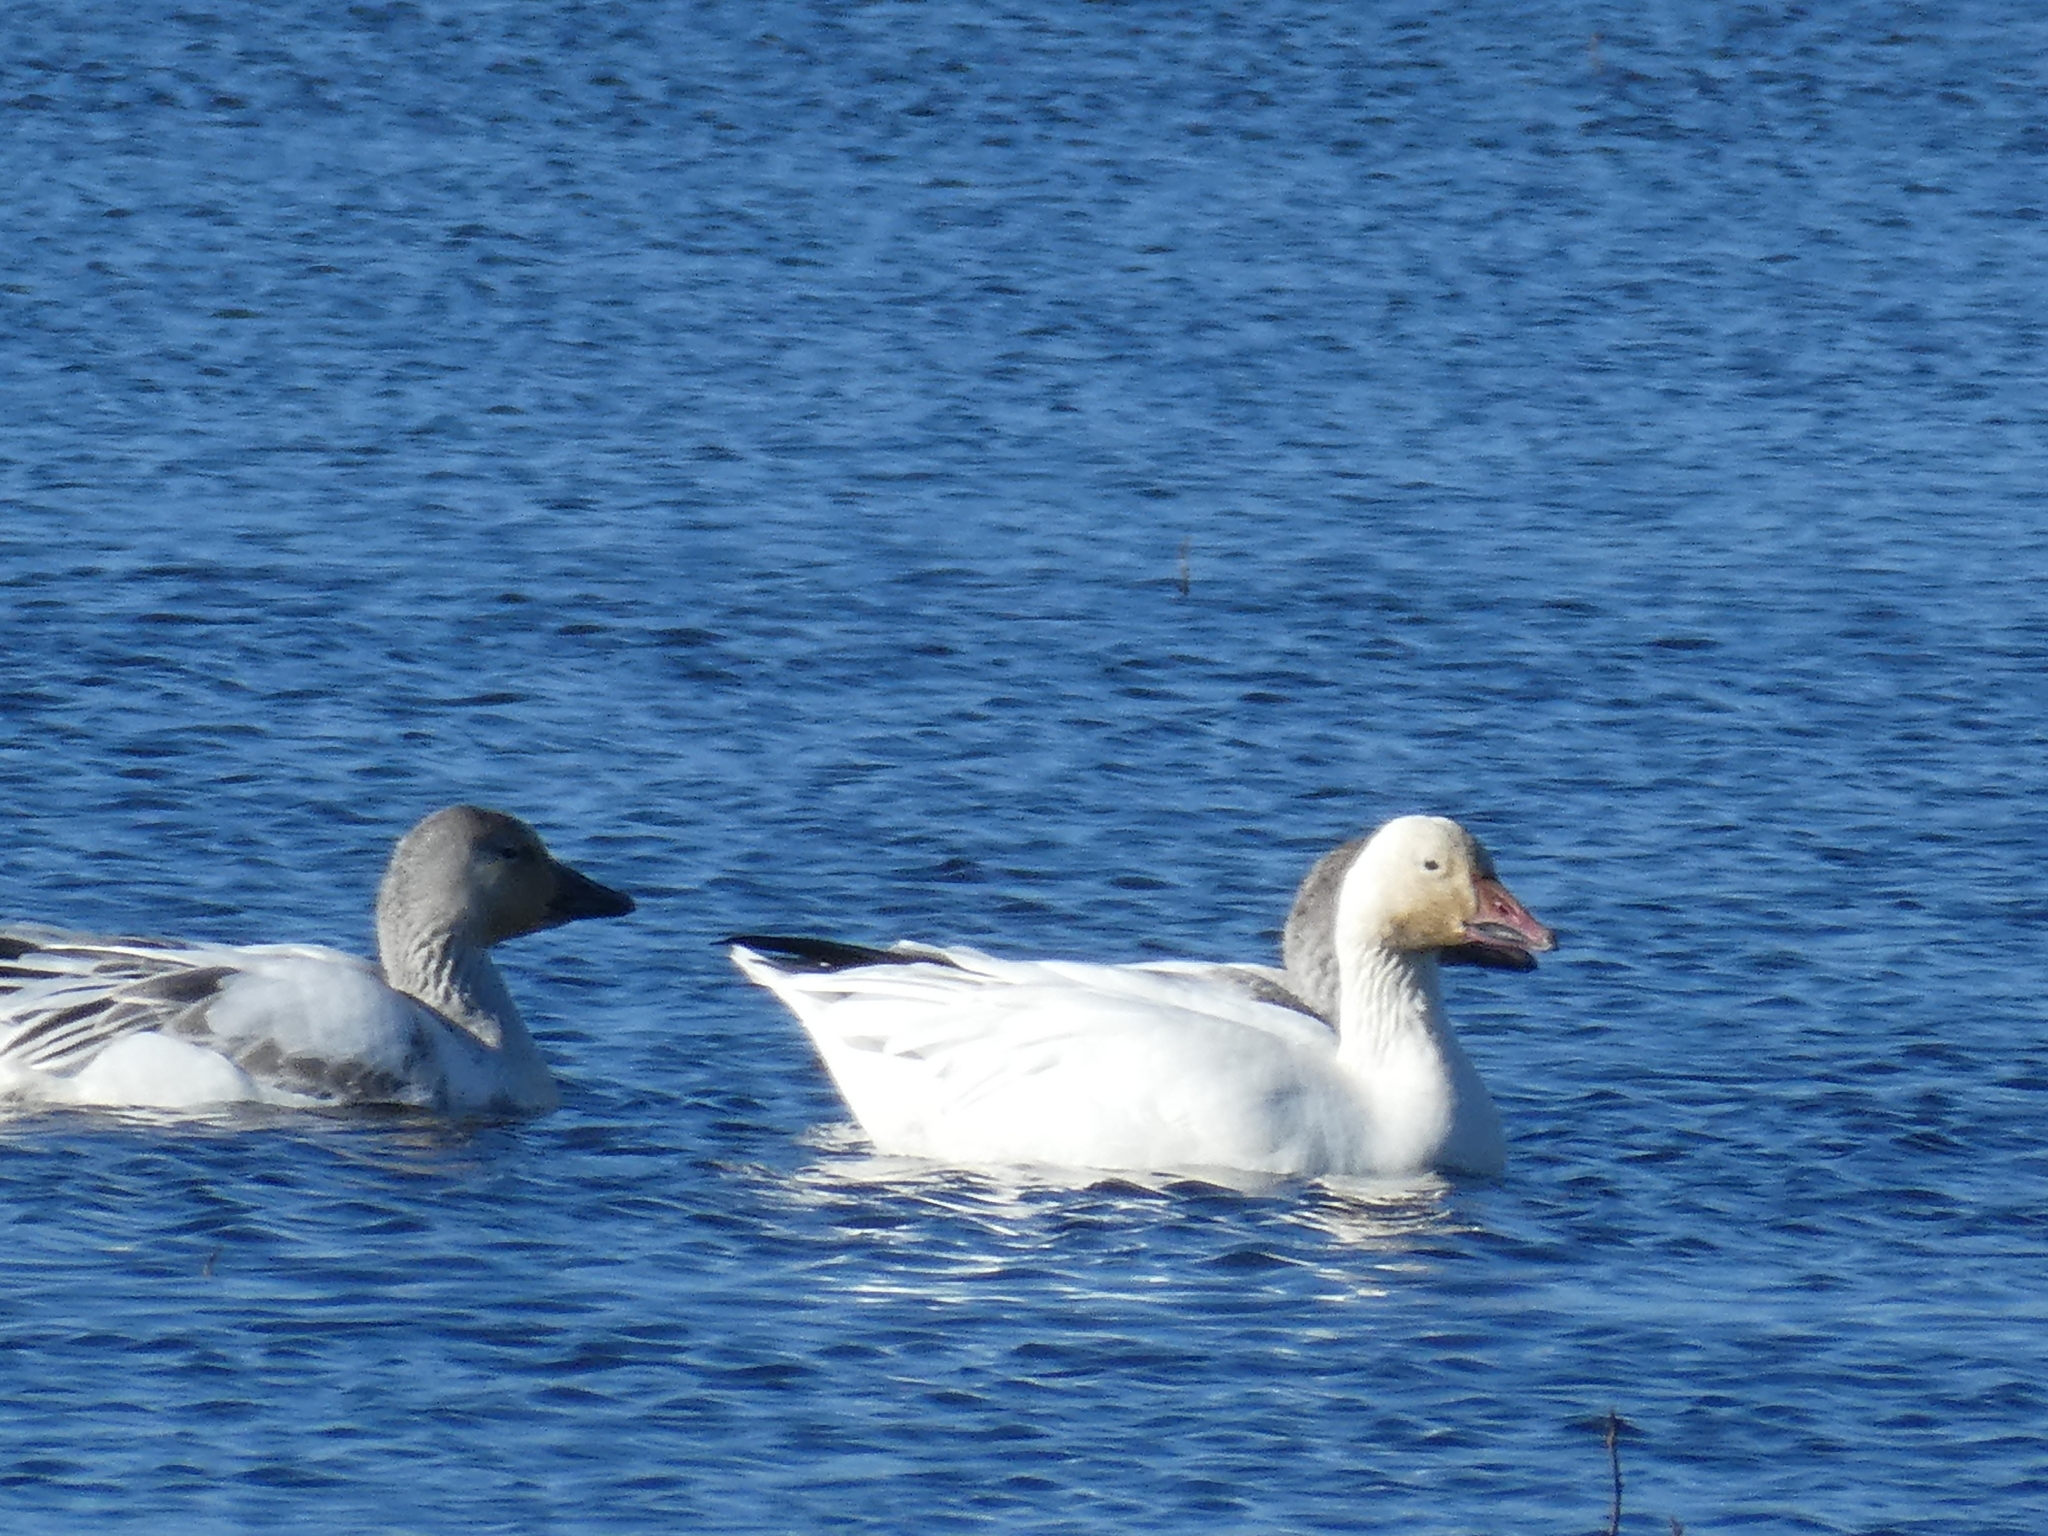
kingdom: Animalia
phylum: Chordata
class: Aves
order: Anseriformes
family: Anatidae
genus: Anser
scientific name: Anser caerulescens
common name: Snow goose
